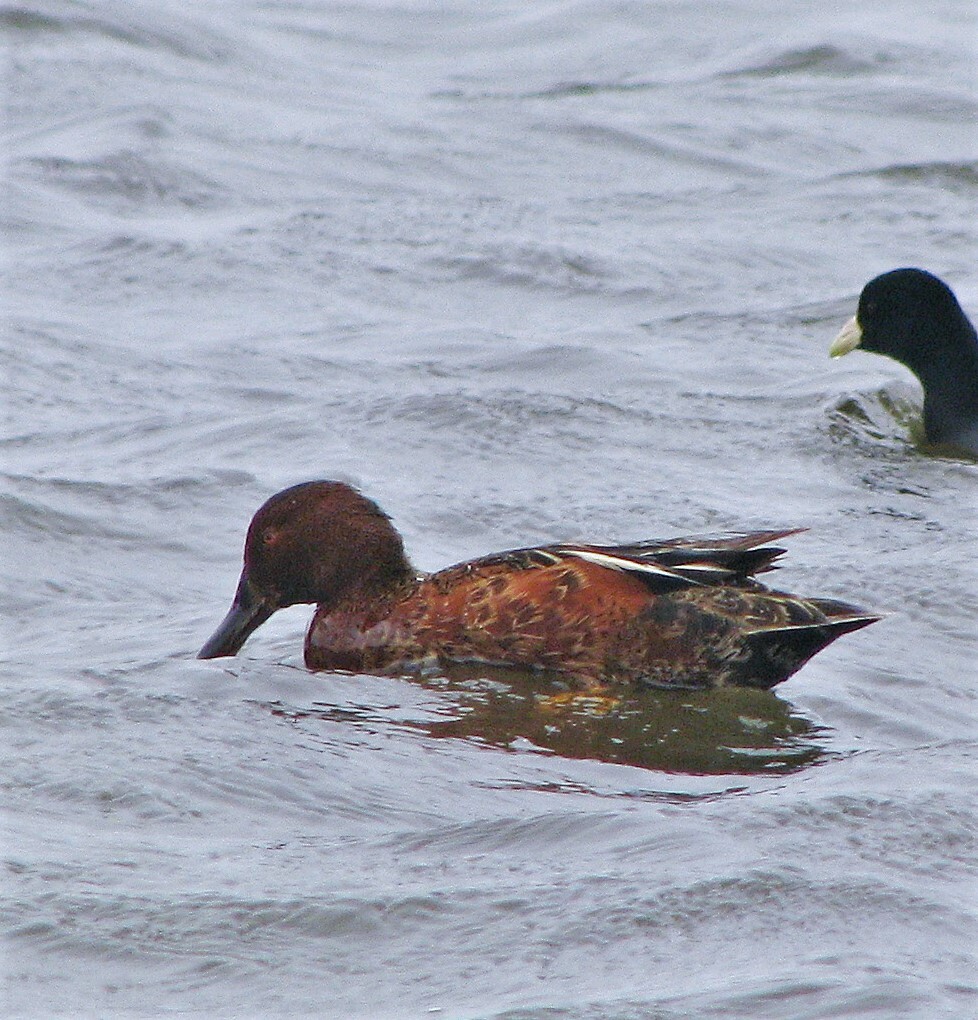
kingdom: Animalia
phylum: Chordata
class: Aves
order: Anseriformes
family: Anatidae
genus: Spatula
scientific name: Spatula cyanoptera
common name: Cinnamon teal
